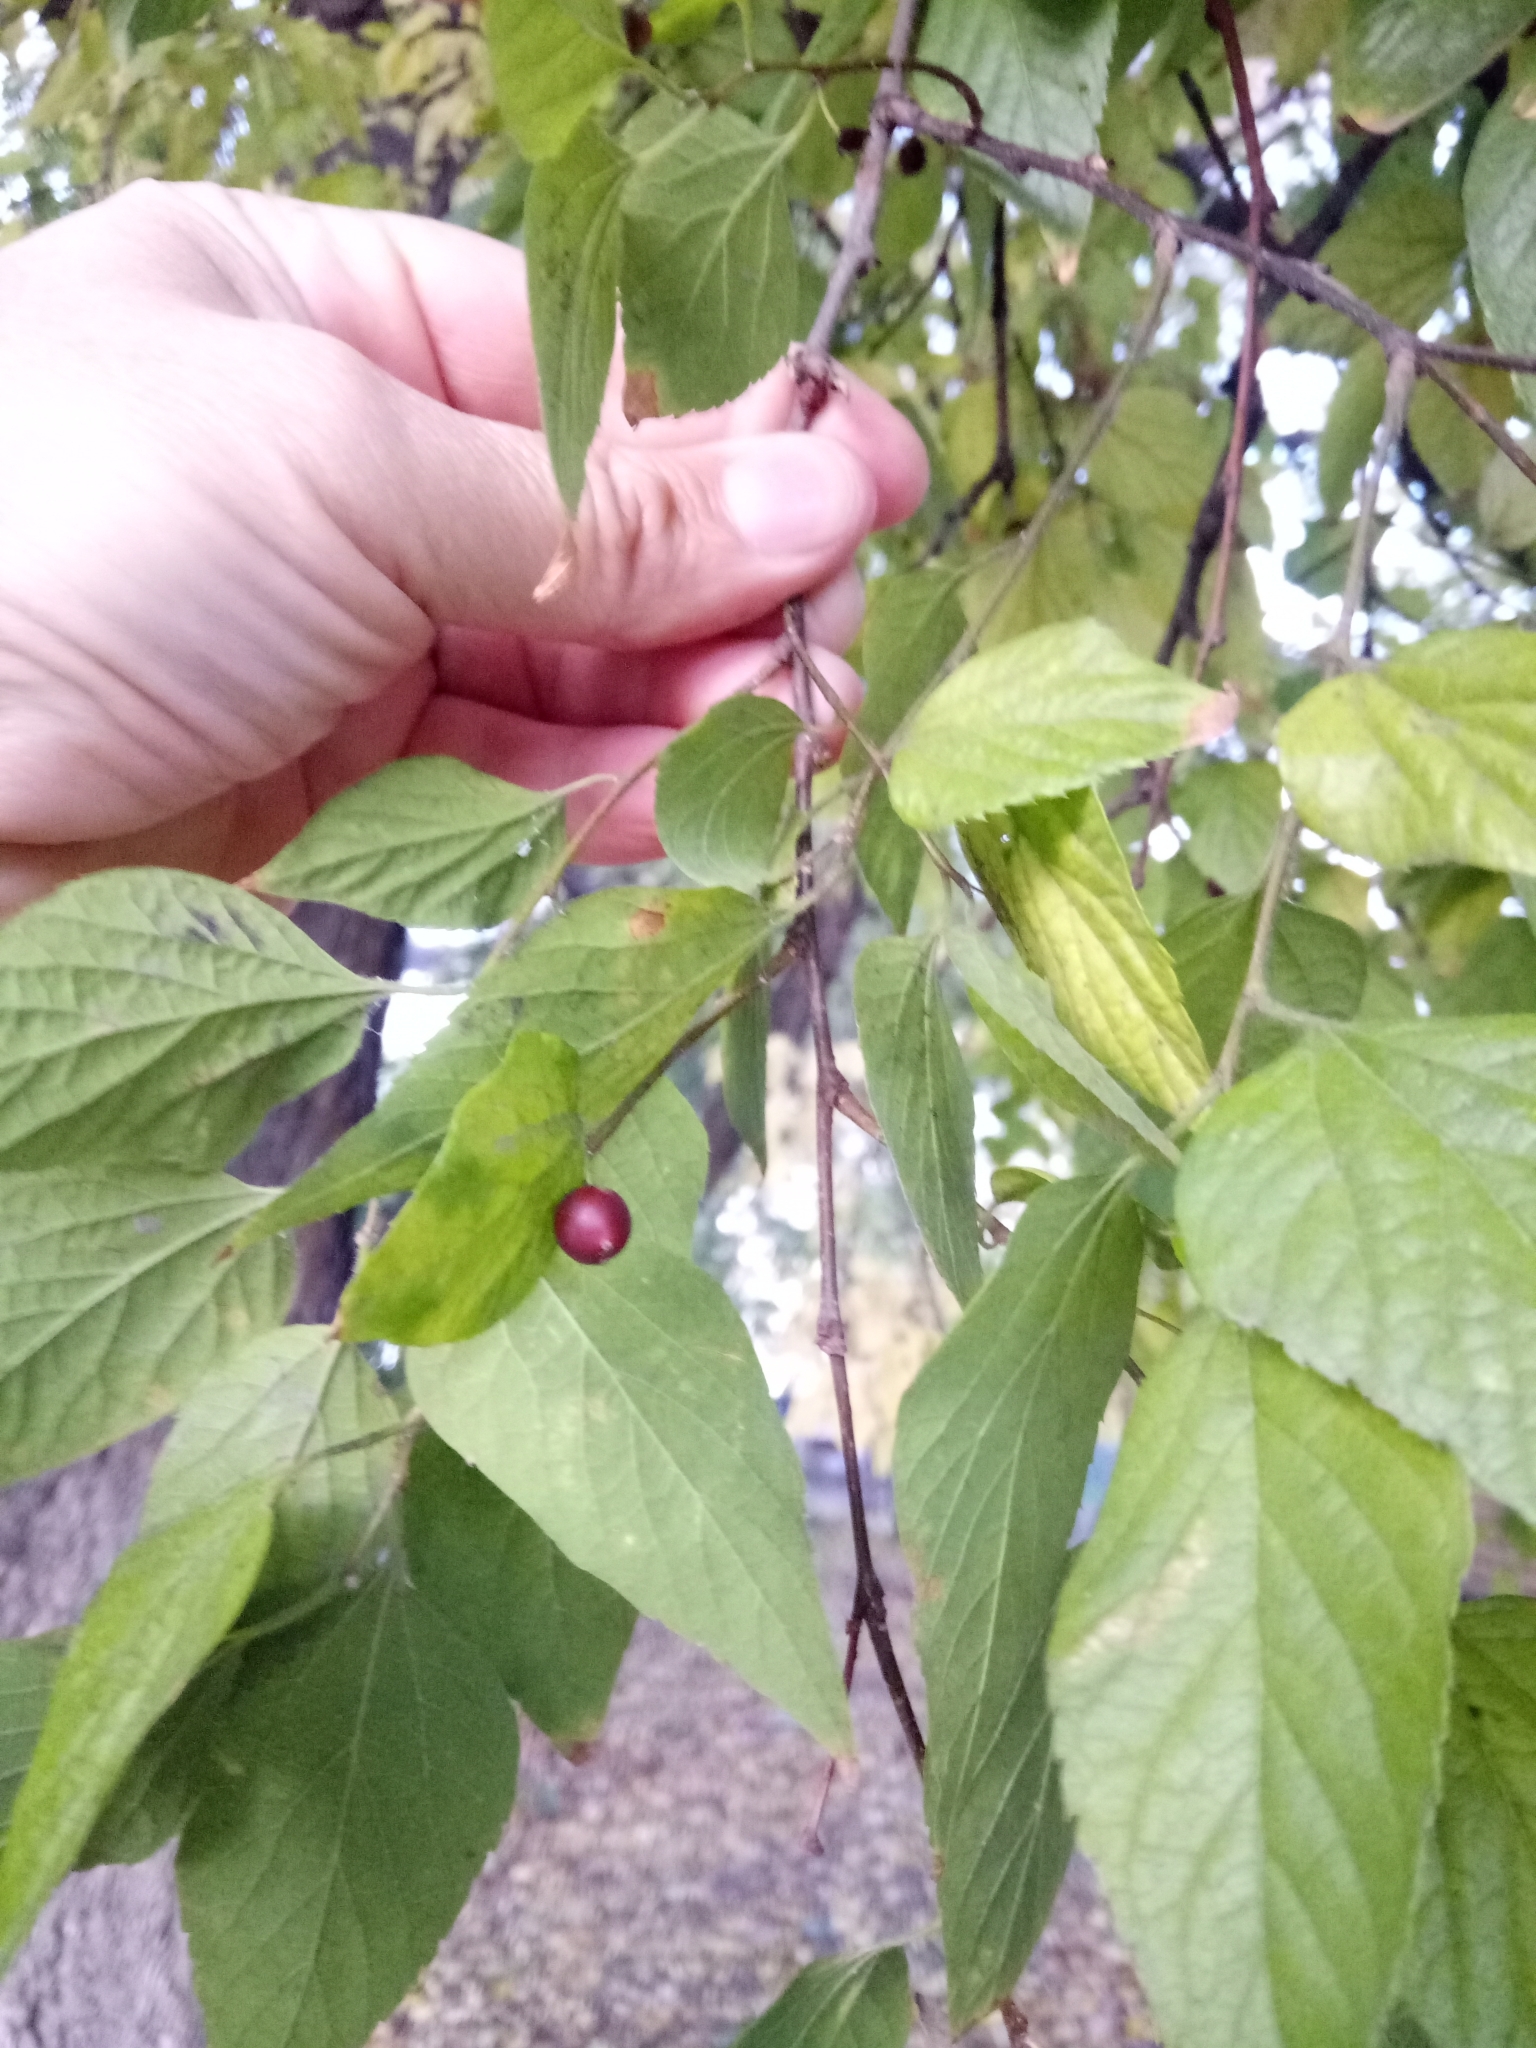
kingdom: Plantae
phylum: Tracheophyta
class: Magnoliopsida
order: Rosales
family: Cannabaceae
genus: Celtis
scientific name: Celtis occidentalis
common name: Common hackberry
